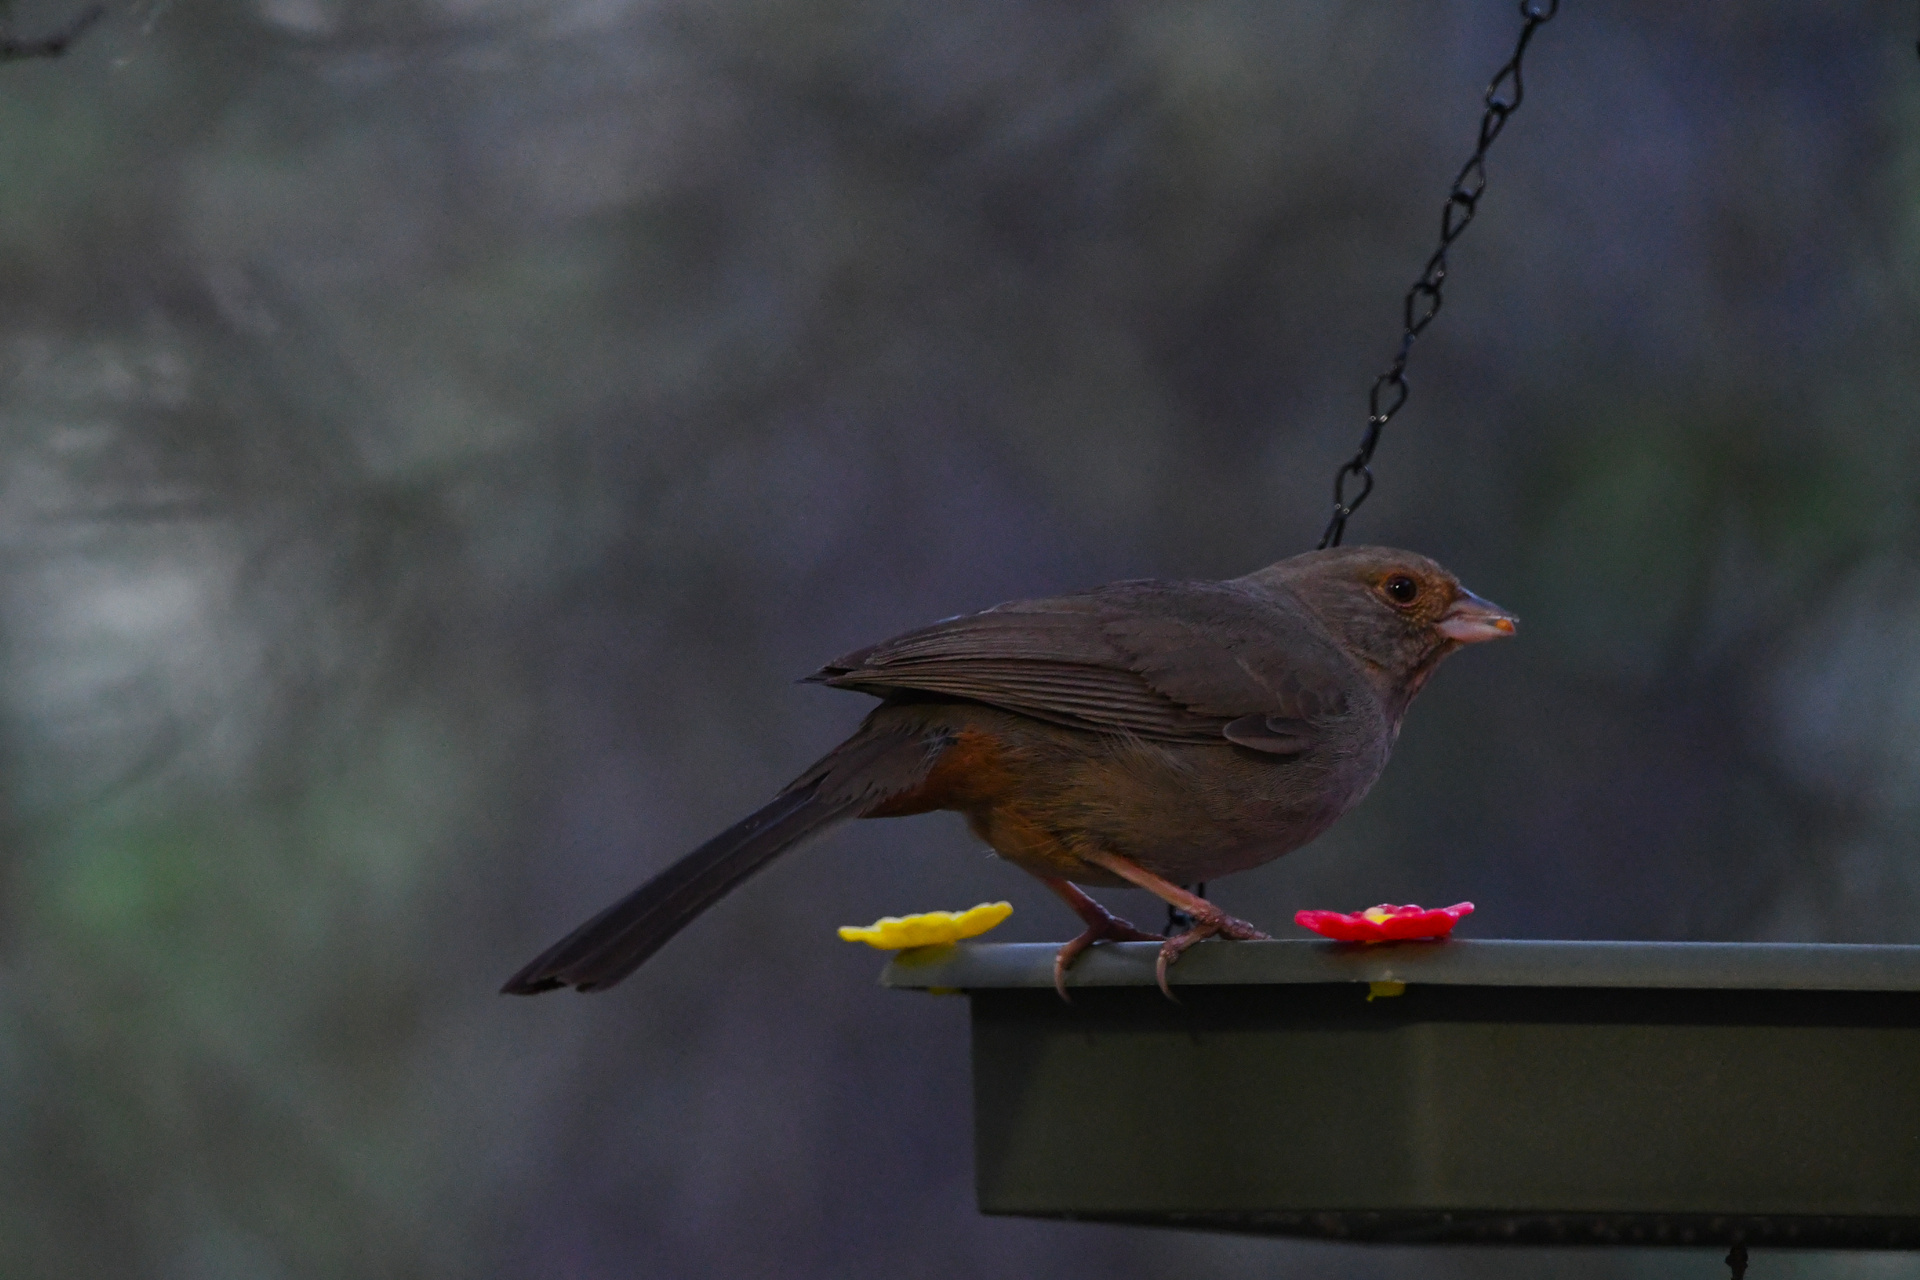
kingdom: Animalia
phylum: Chordata
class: Aves
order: Passeriformes
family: Passerellidae
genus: Melozone
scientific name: Melozone crissalis
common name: California towhee
